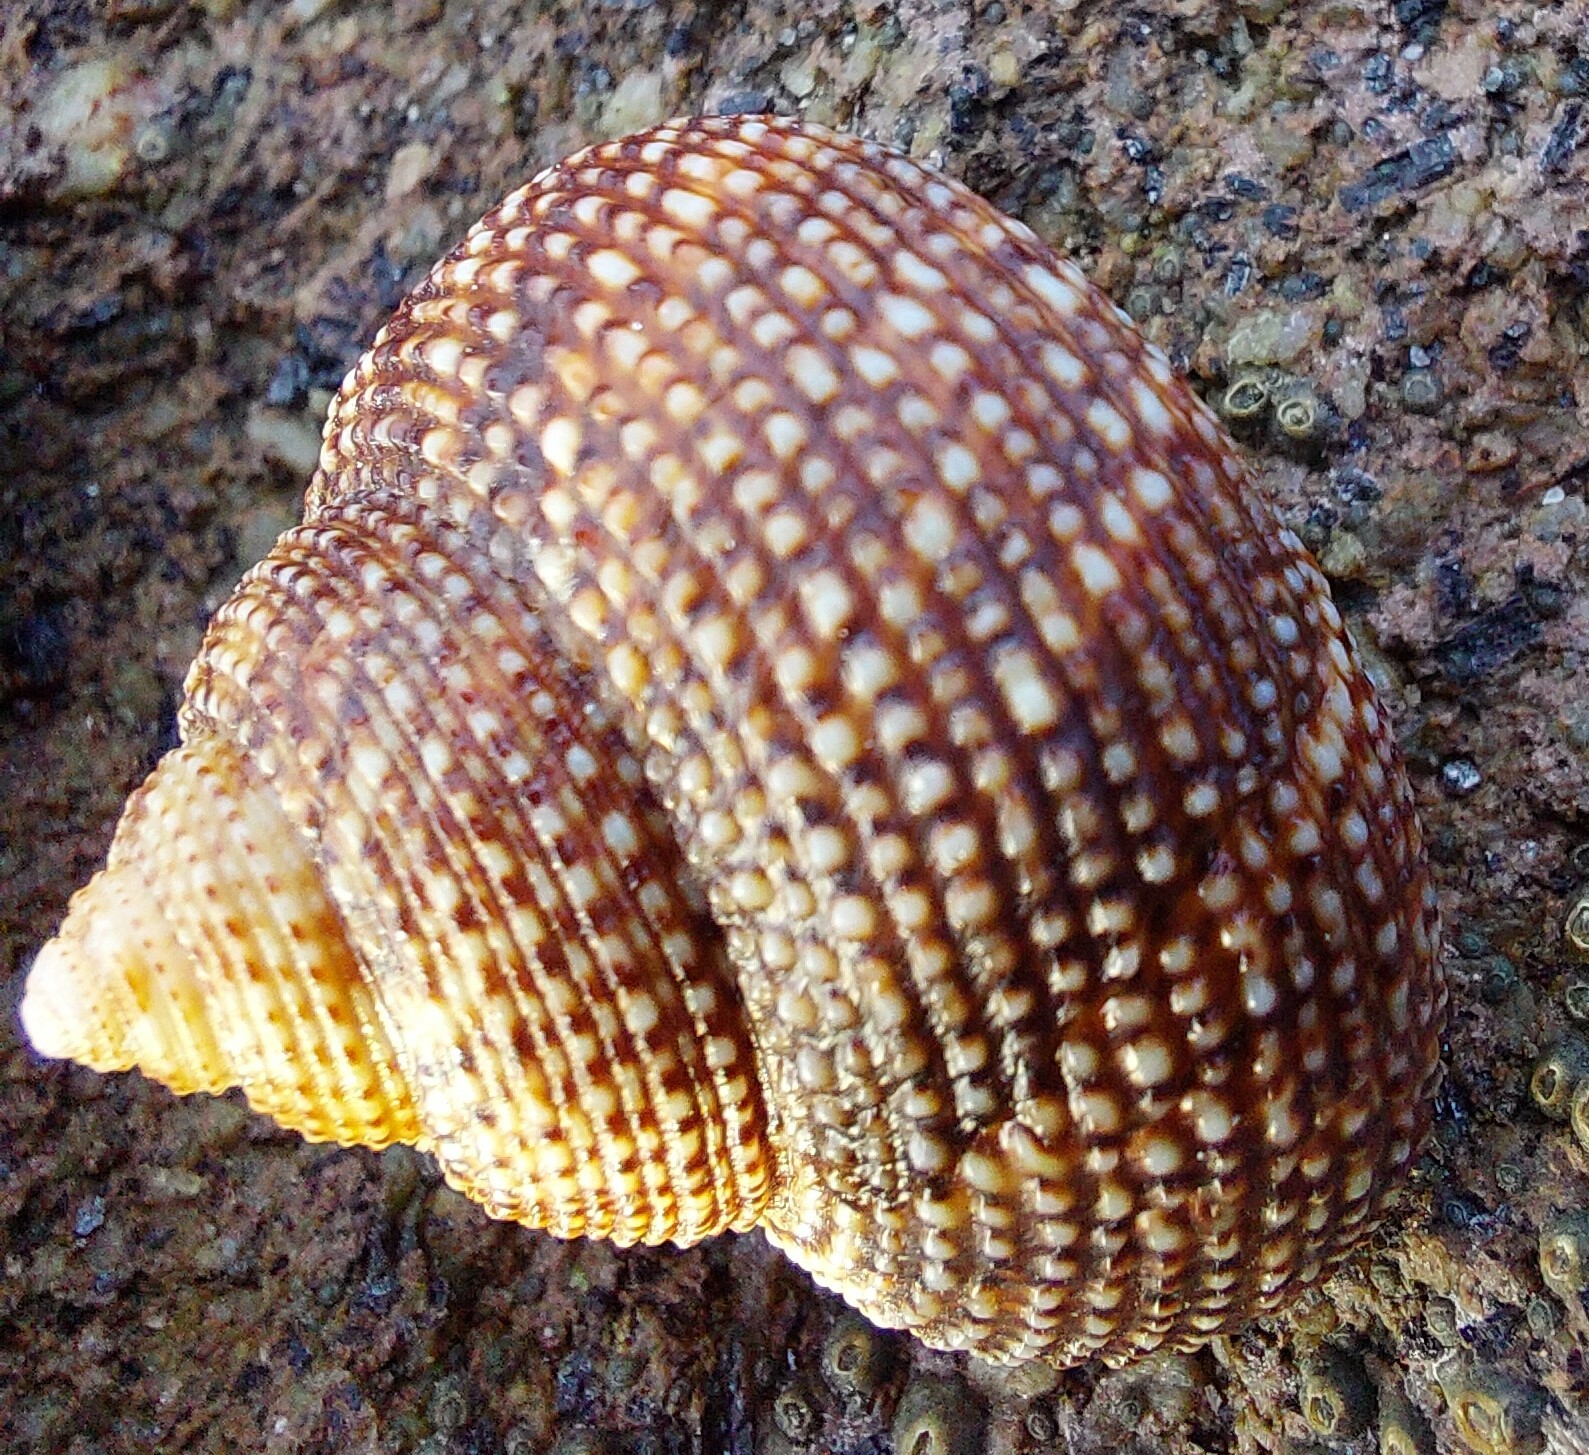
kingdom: Animalia
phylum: Mollusca
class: Gastropoda
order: Trochida
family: Calliostomatidae
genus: Maurea
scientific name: Maurea punctulata
